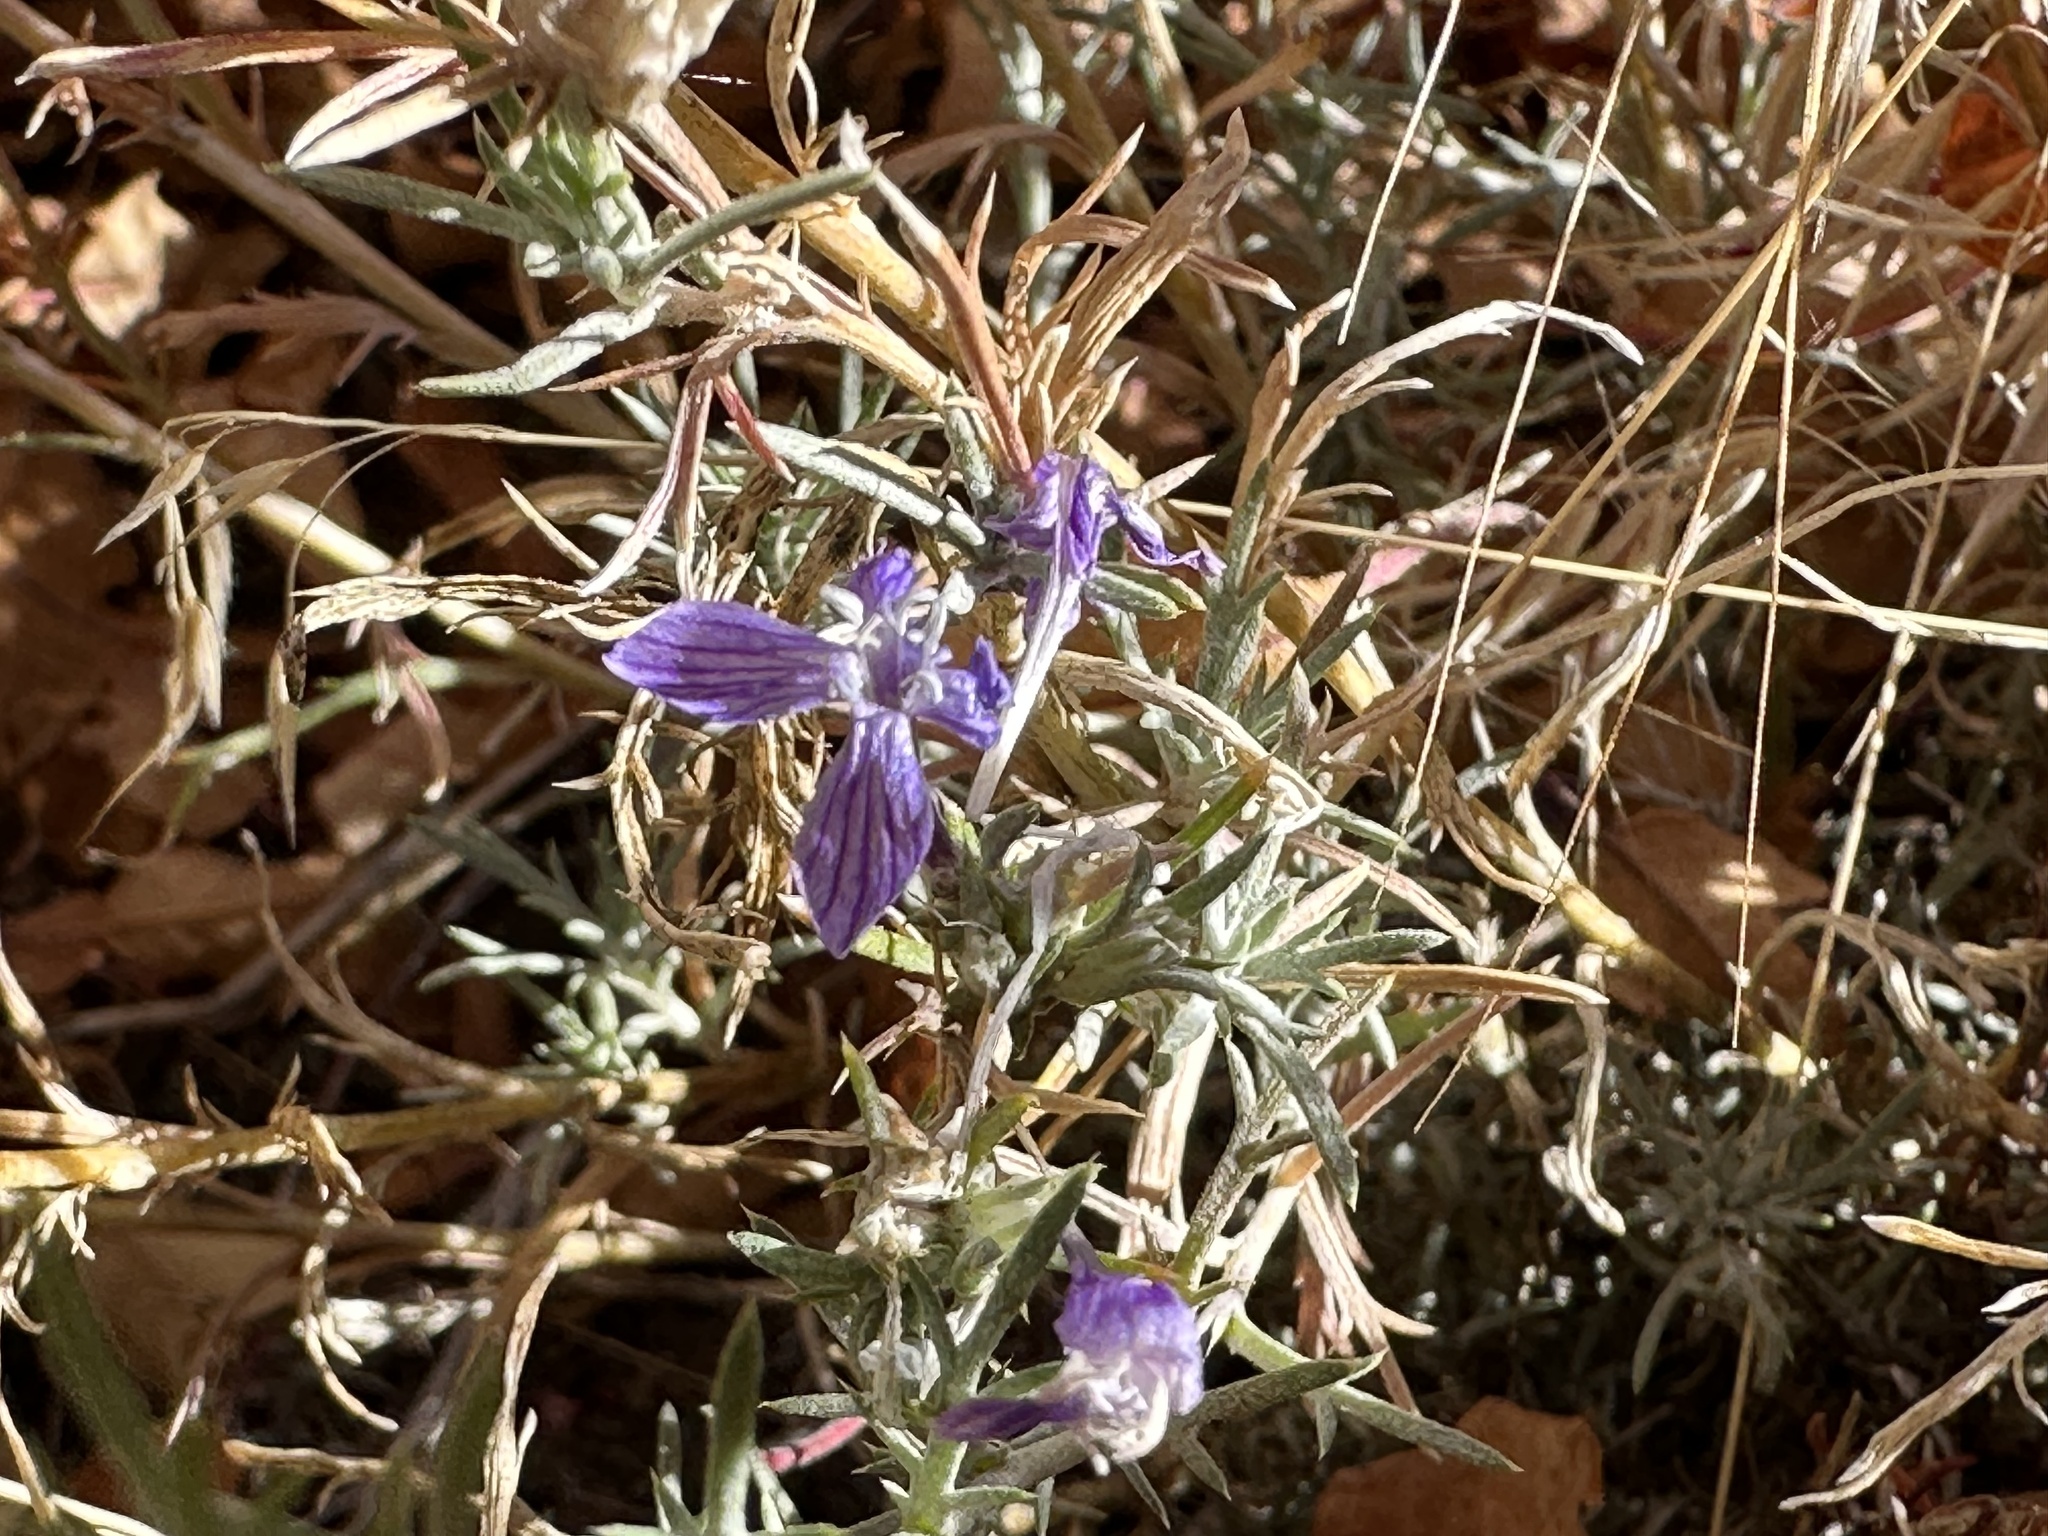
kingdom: Plantae
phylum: Tracheophyta
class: Magnoliopsida
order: Ericales
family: Polemoniaceae
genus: Eriastrum
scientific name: Eriastrum densifolium
